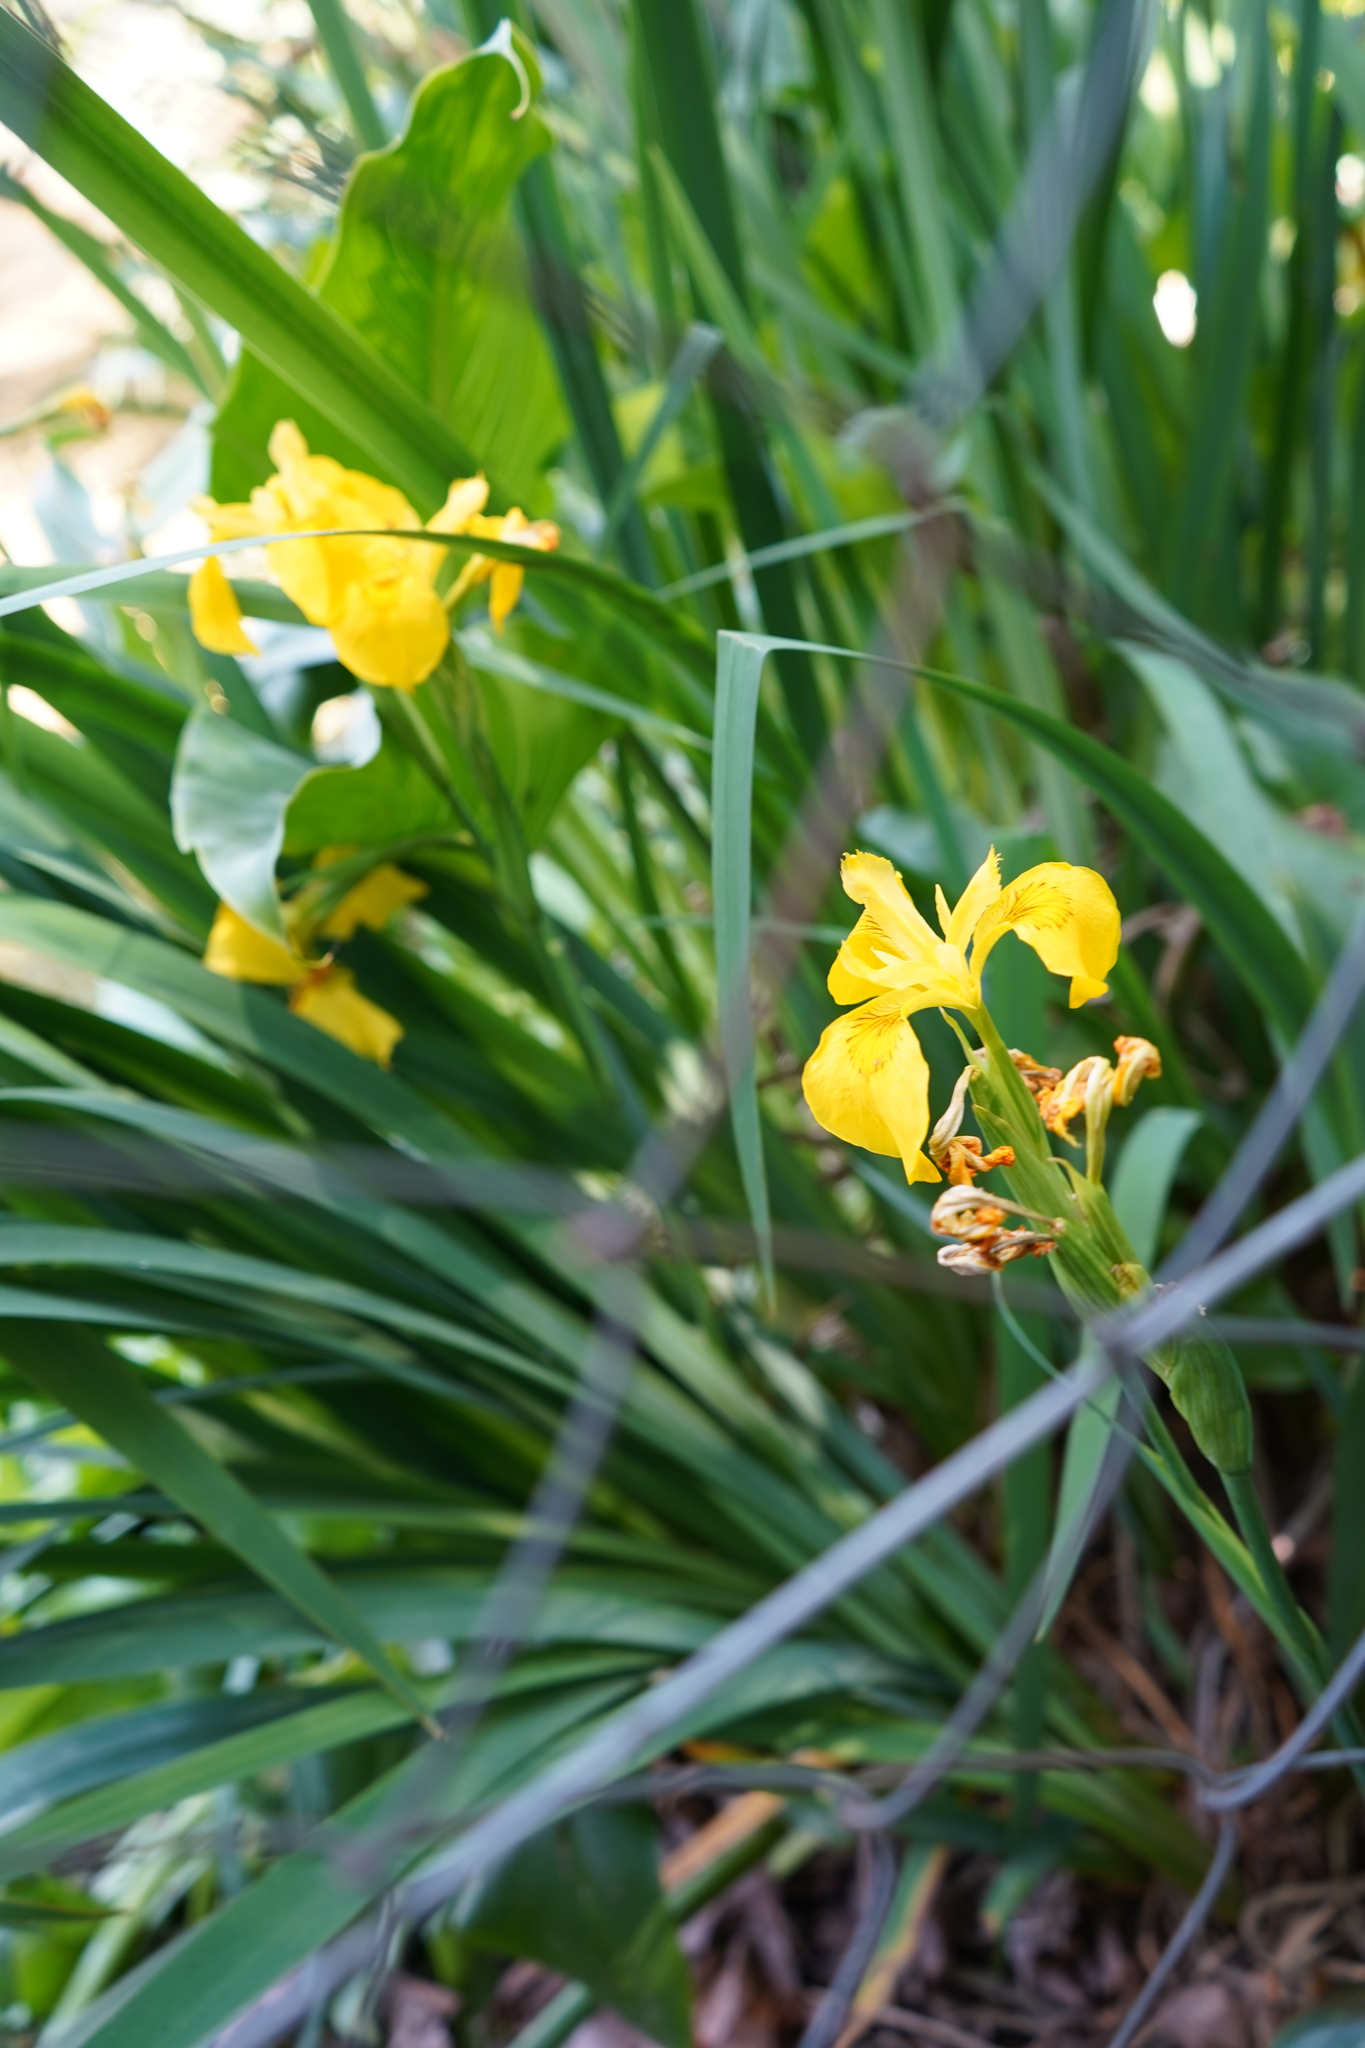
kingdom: Plantae
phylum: Tracheophyta
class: Liliopsida
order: Asparagales
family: Iridaceae
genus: Iris
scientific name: Iris pseudacorus
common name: Yellow flag
